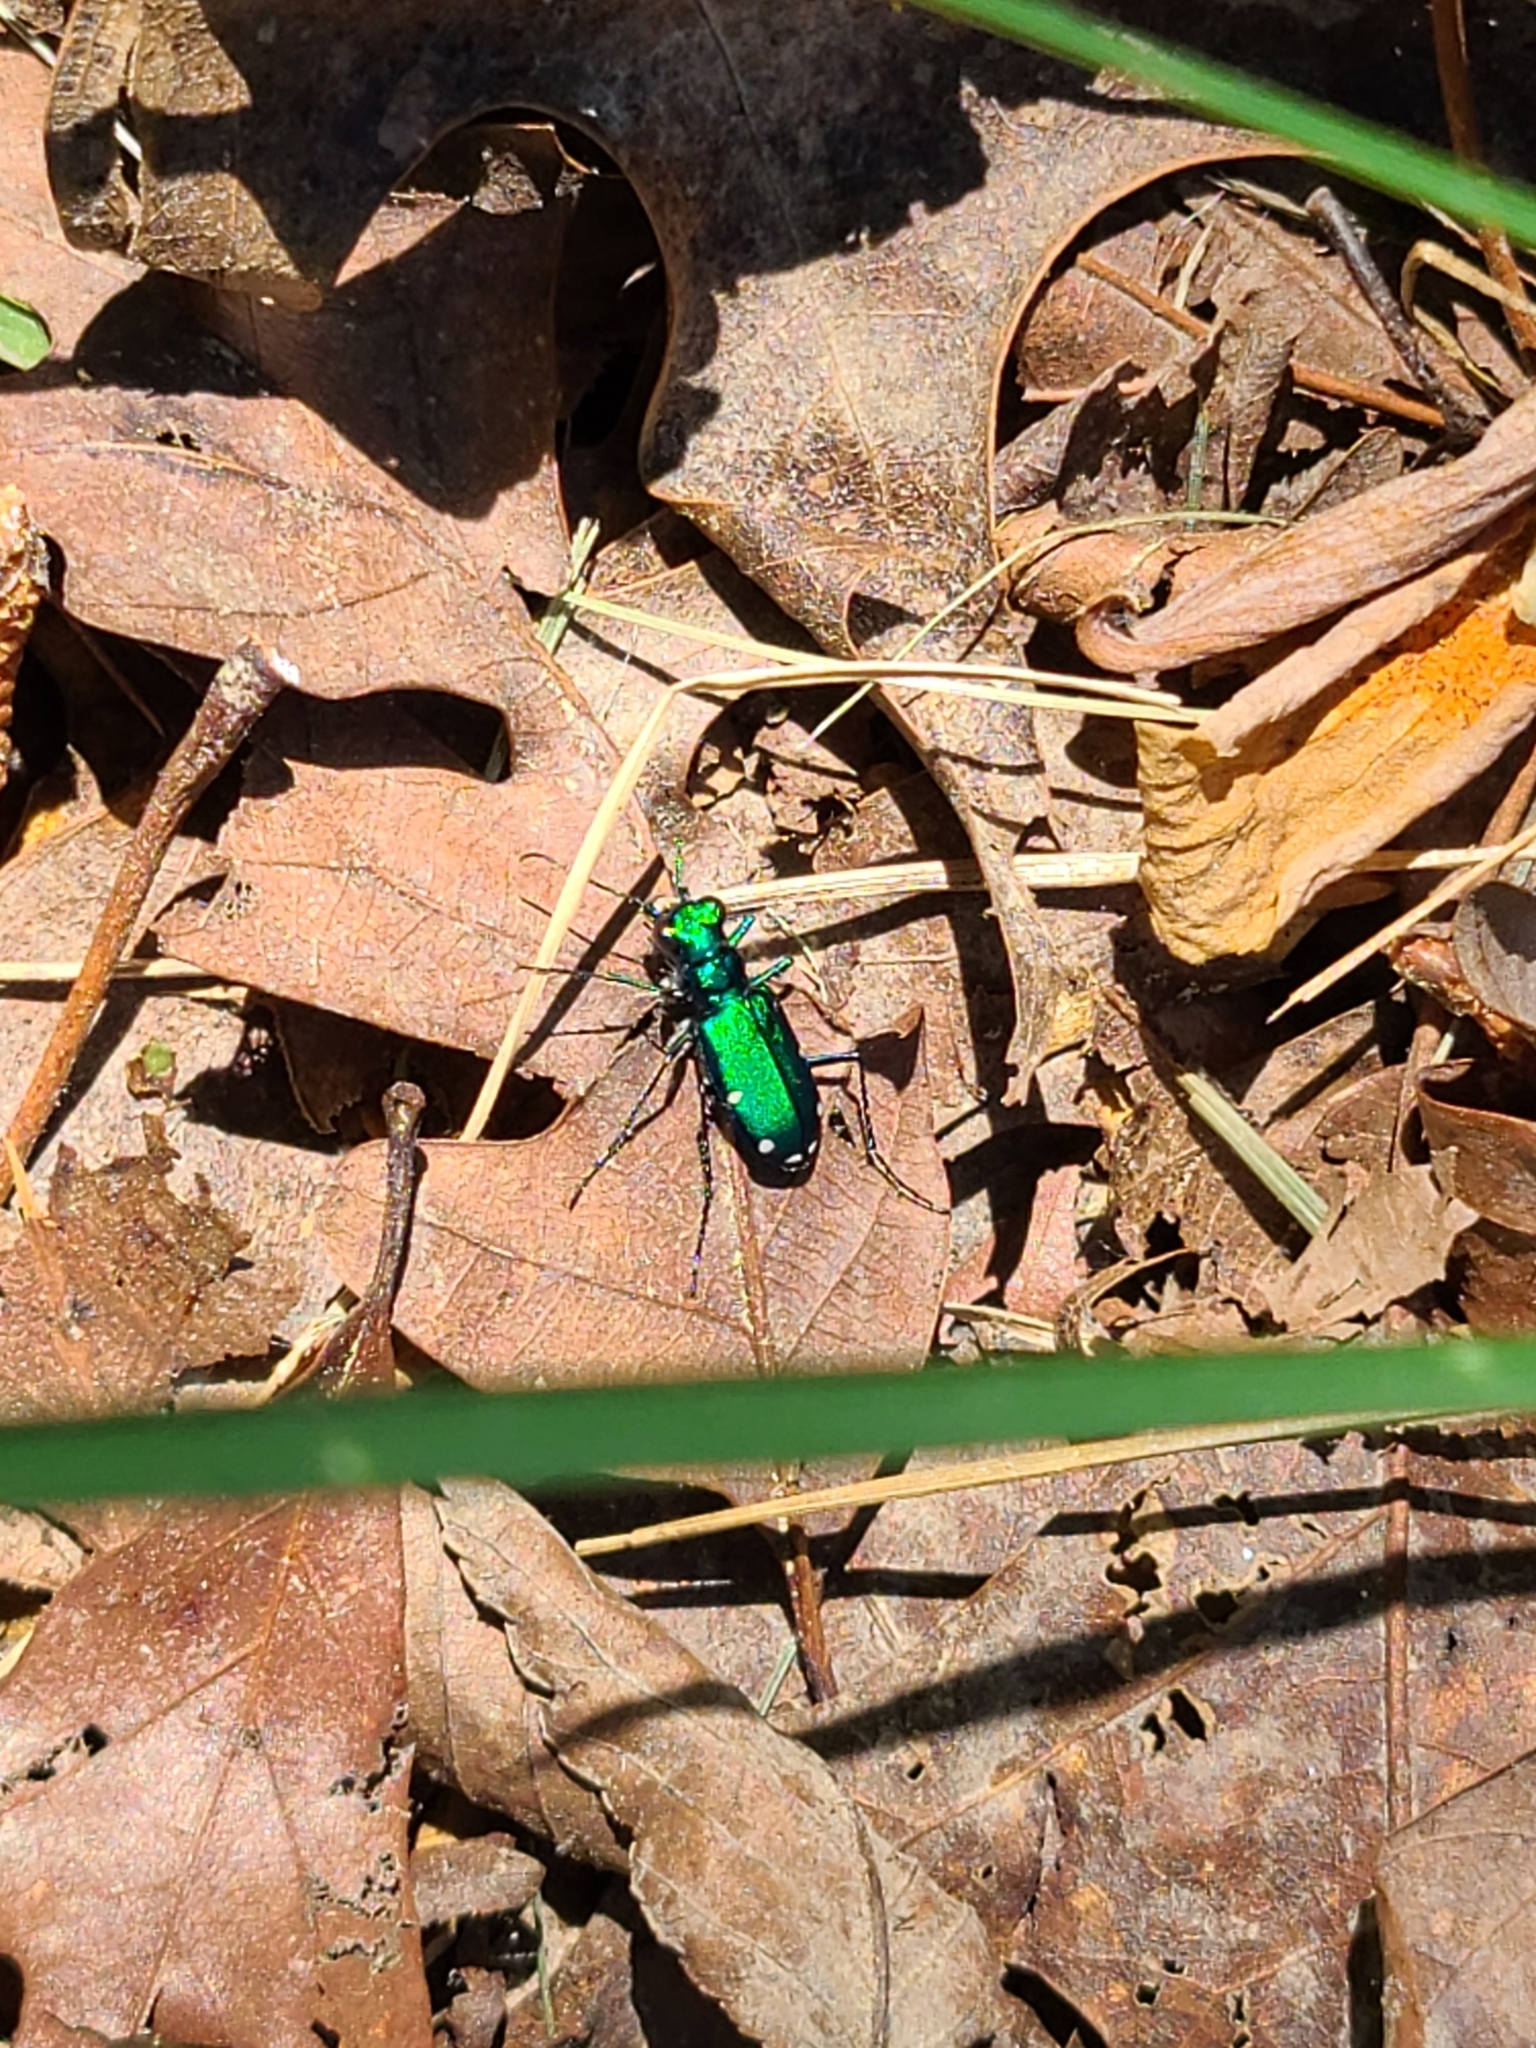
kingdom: Animalia
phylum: Arthropoda
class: Insecta
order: Coleoptera
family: Carabidae
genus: Cicindela
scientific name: Cicindela sexguttata
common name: Six-spotted tiger beetle
